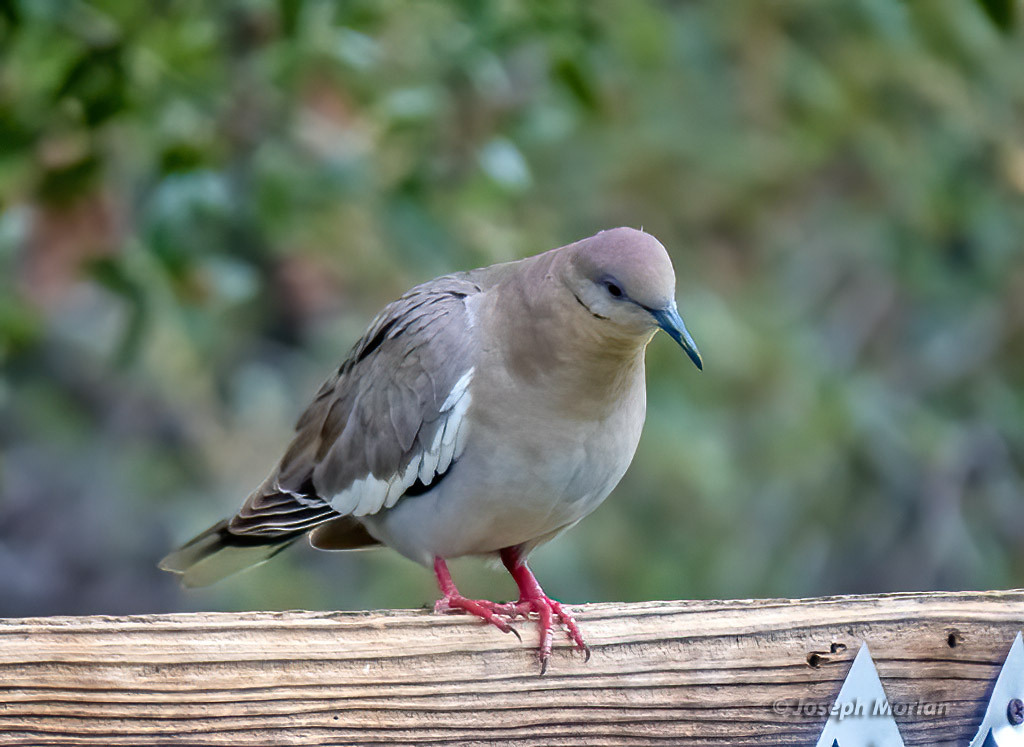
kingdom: Animalia
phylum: Chordata
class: Aves
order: Columbiformes
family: Columbidae
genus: Zenaida
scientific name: Zenaida asiatica
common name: White-winged dove
